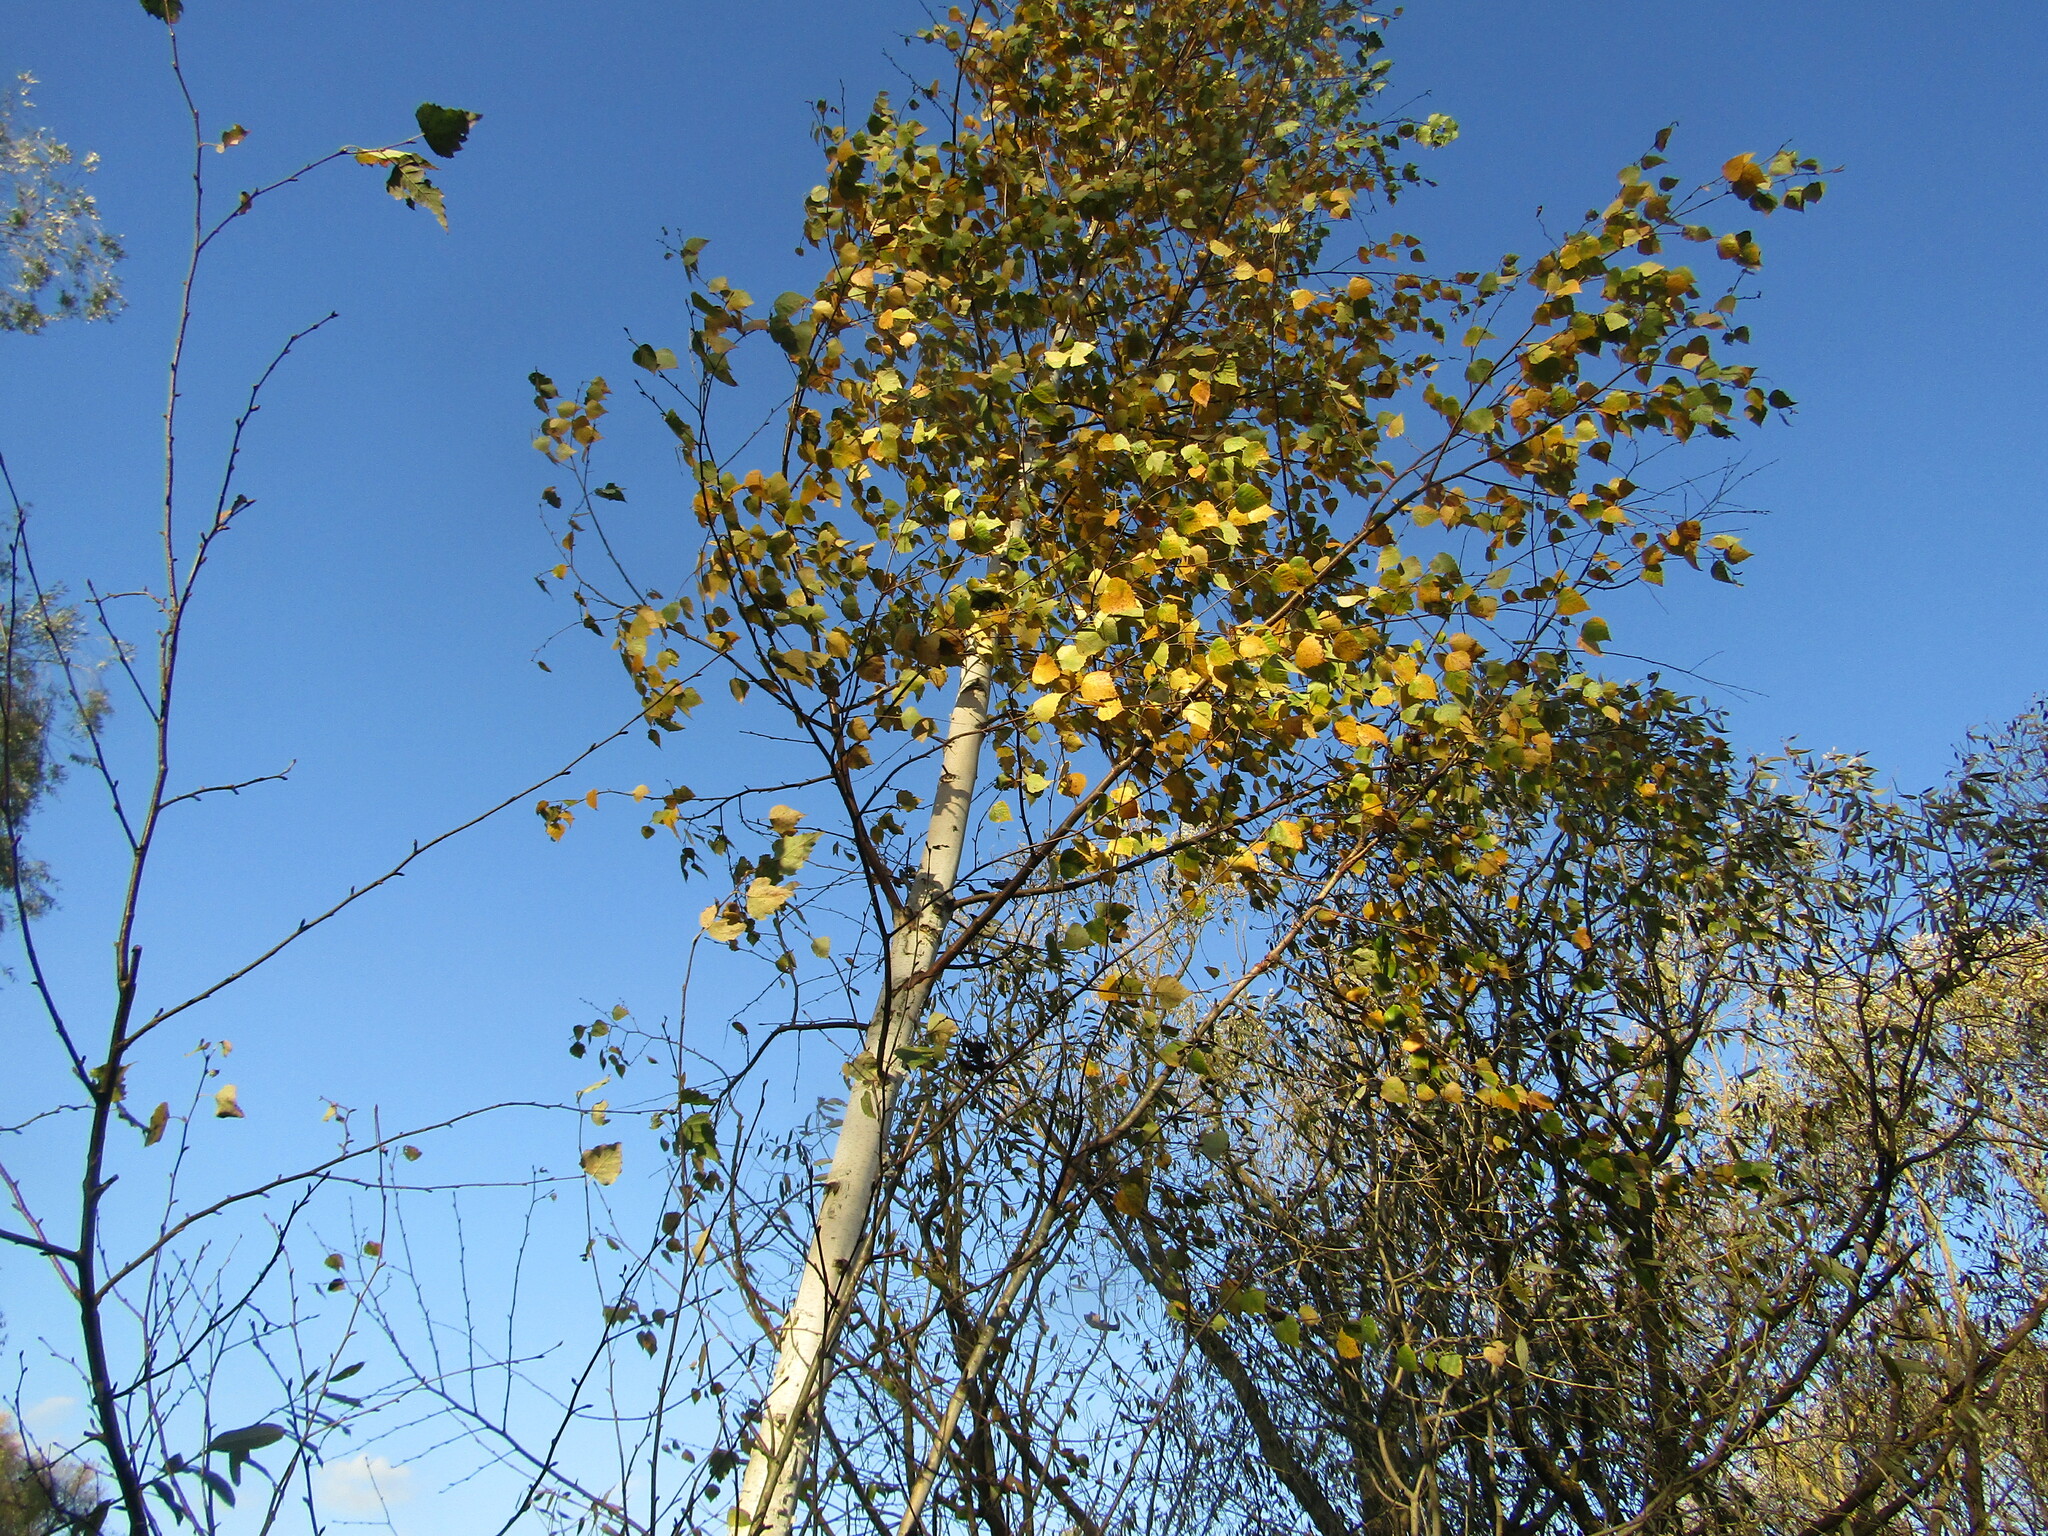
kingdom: Plantae
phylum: Tracheophyta
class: Magnoliopsida
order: Fagales
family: Betulaceae
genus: Betula
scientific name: Betula pendula
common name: Silver birch
